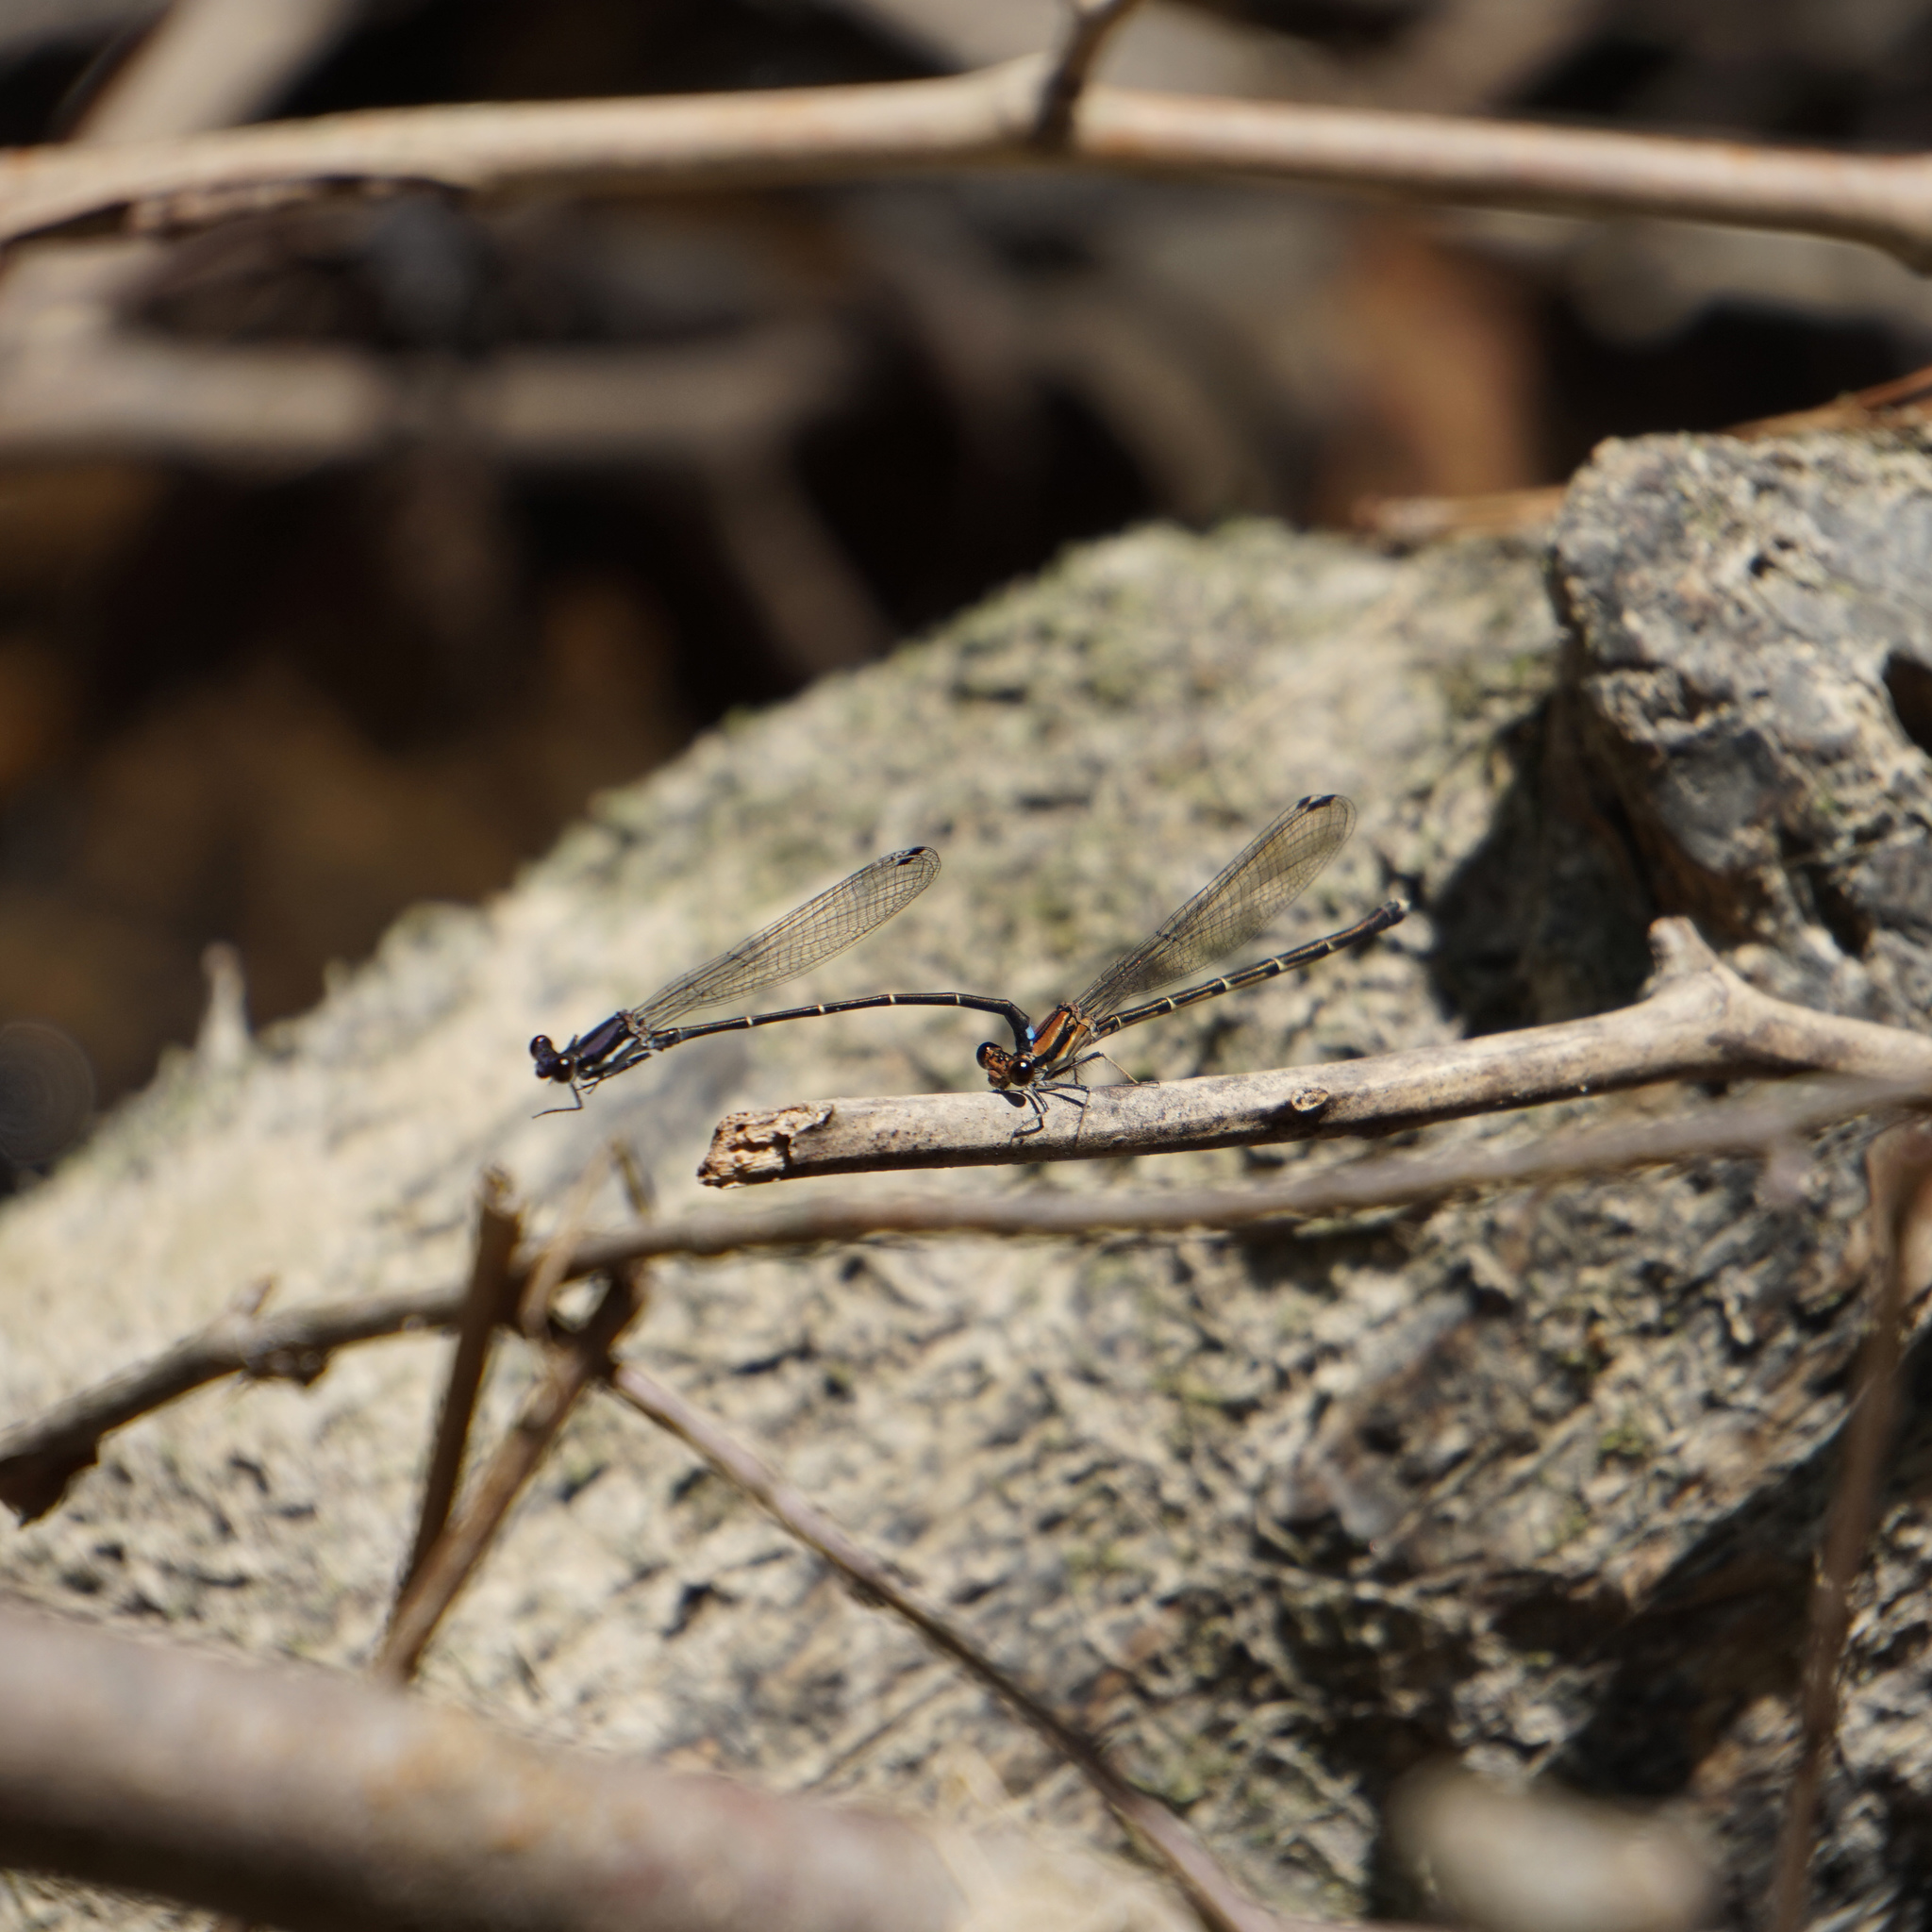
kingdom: Animalia
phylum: Arthropoda
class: Insecta
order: Odonata
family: Coenagrionidae
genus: Argia
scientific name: Argia tibialis
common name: Blue-tipped dancer
